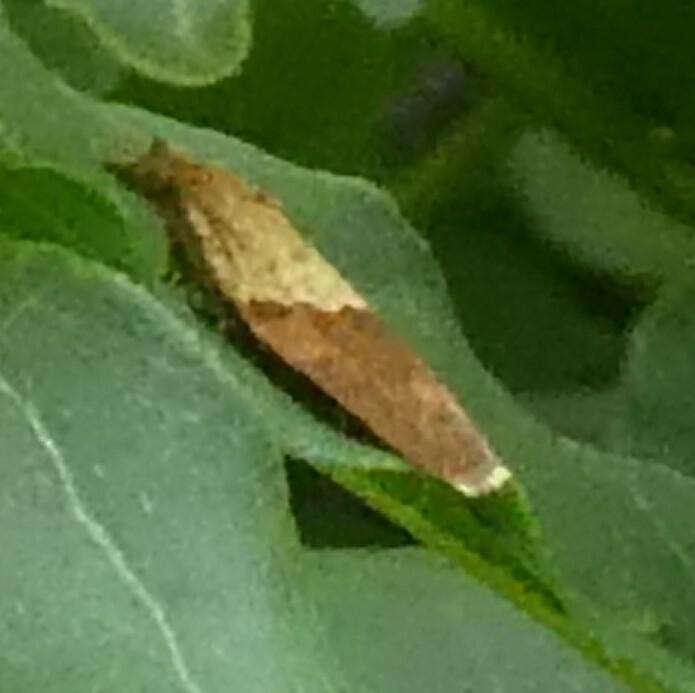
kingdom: Animalia
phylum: Arthropoda
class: Insecta
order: Lepidoptera
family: Tortricidae
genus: Epiphyas
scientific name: Epiphyas postvittana
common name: Light brown apple moth
